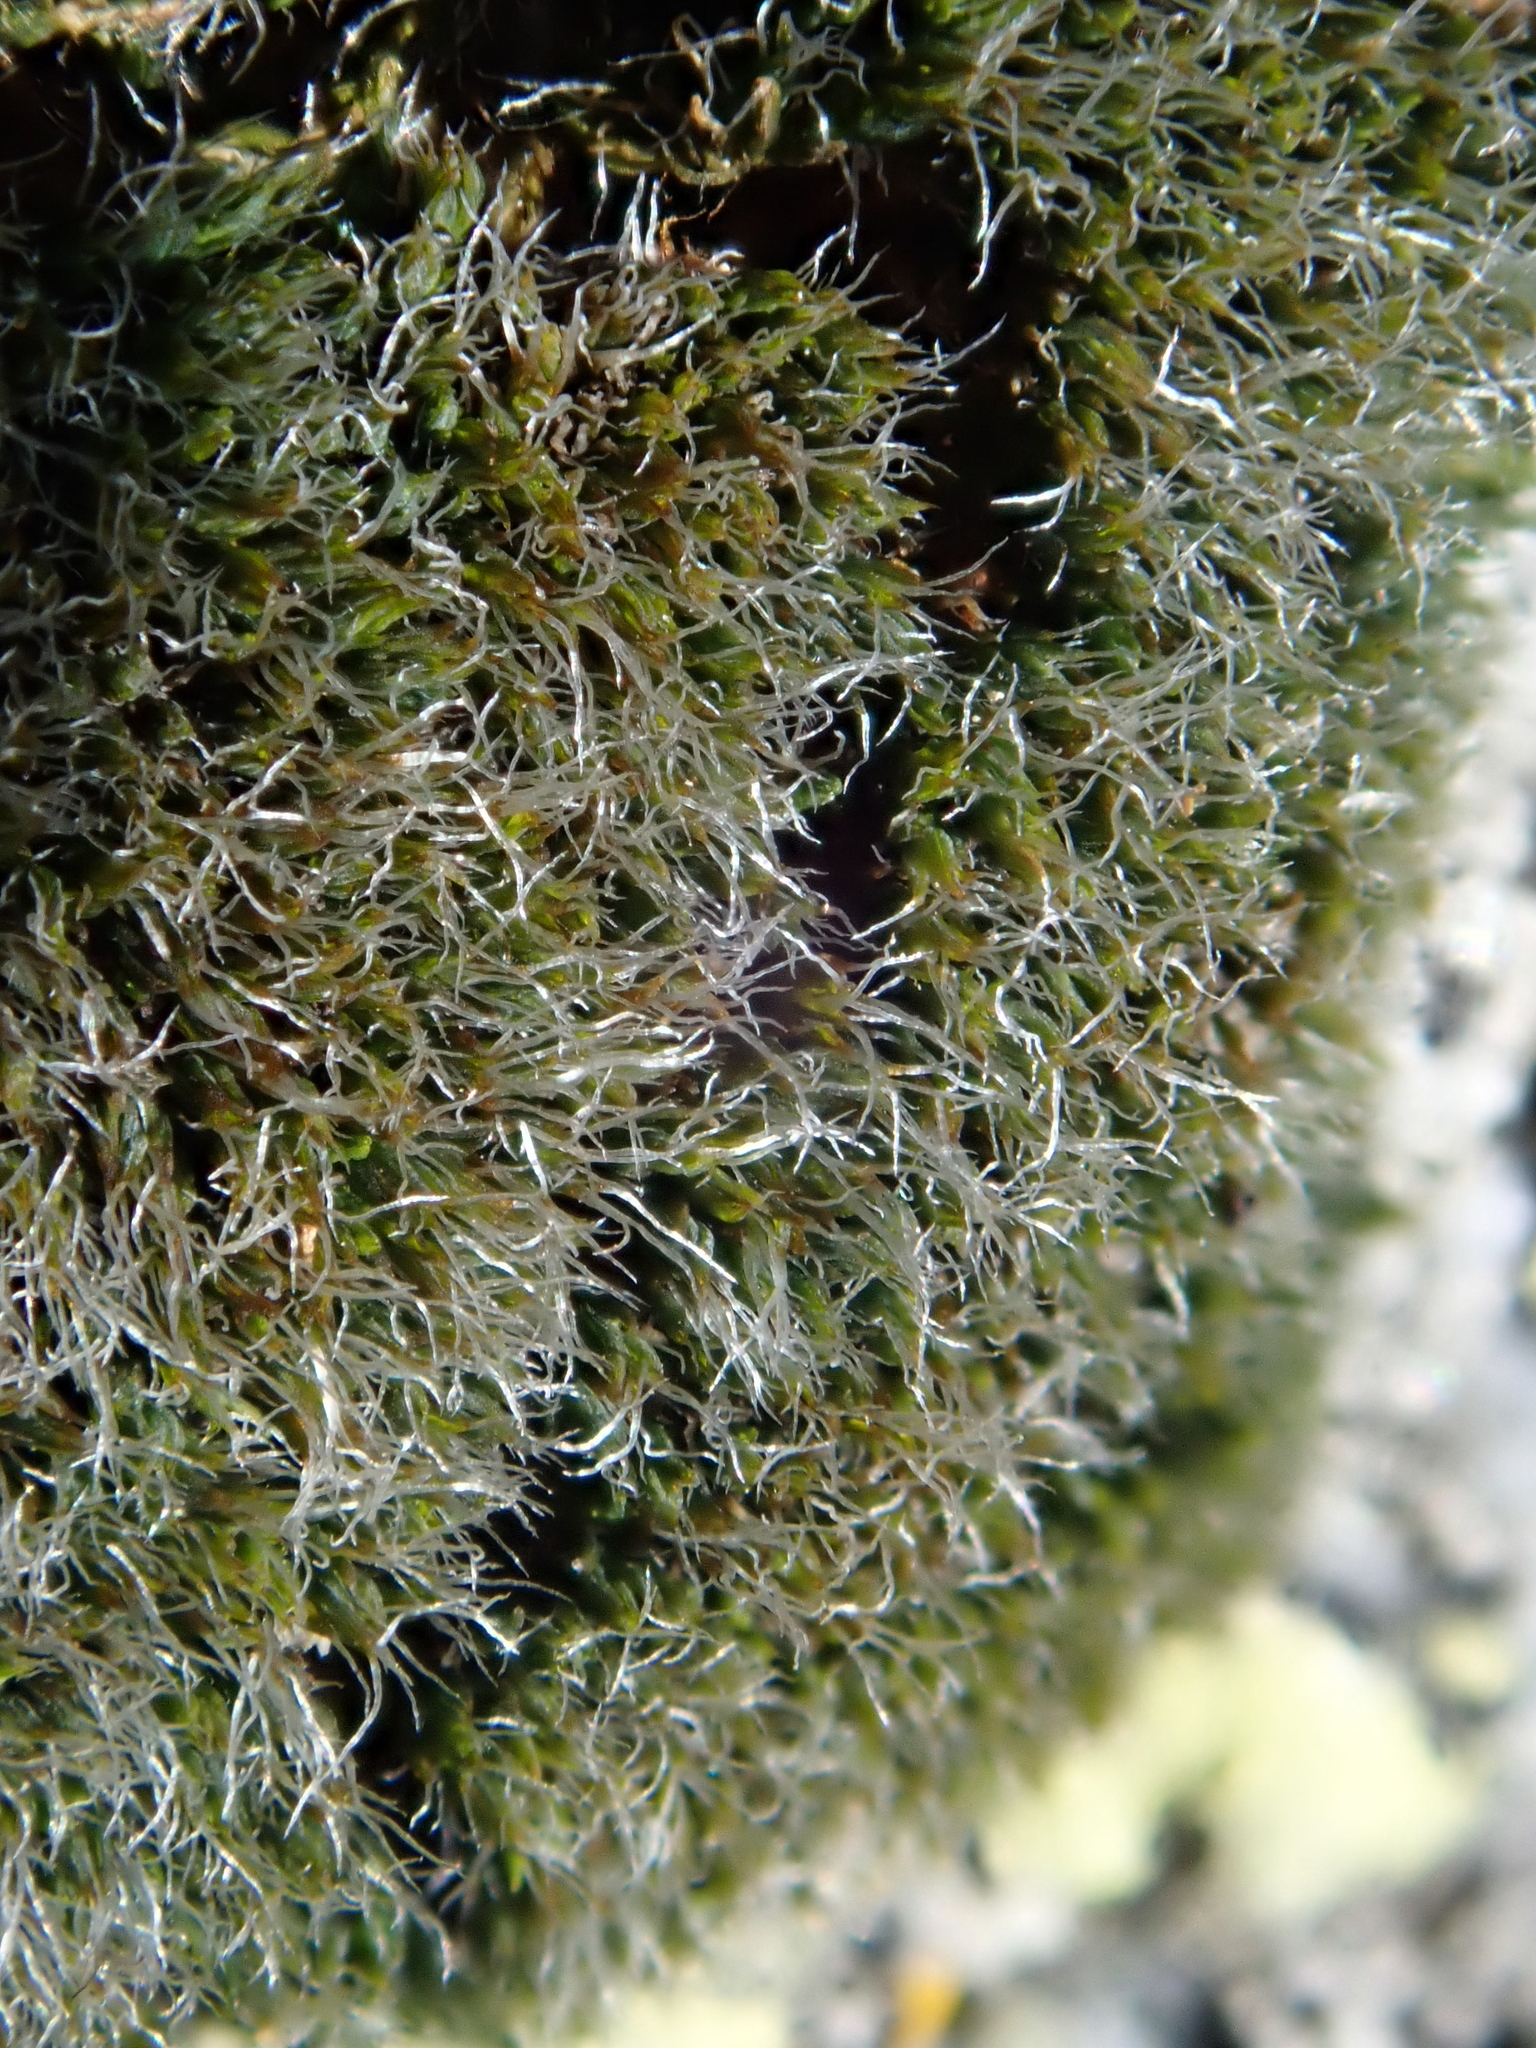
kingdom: Plantae
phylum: Bryophyta
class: Bryopsida
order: Grimmiales
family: Grimmiaceae
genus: Grimmia
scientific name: Grimmia funalis
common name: String grimmia
